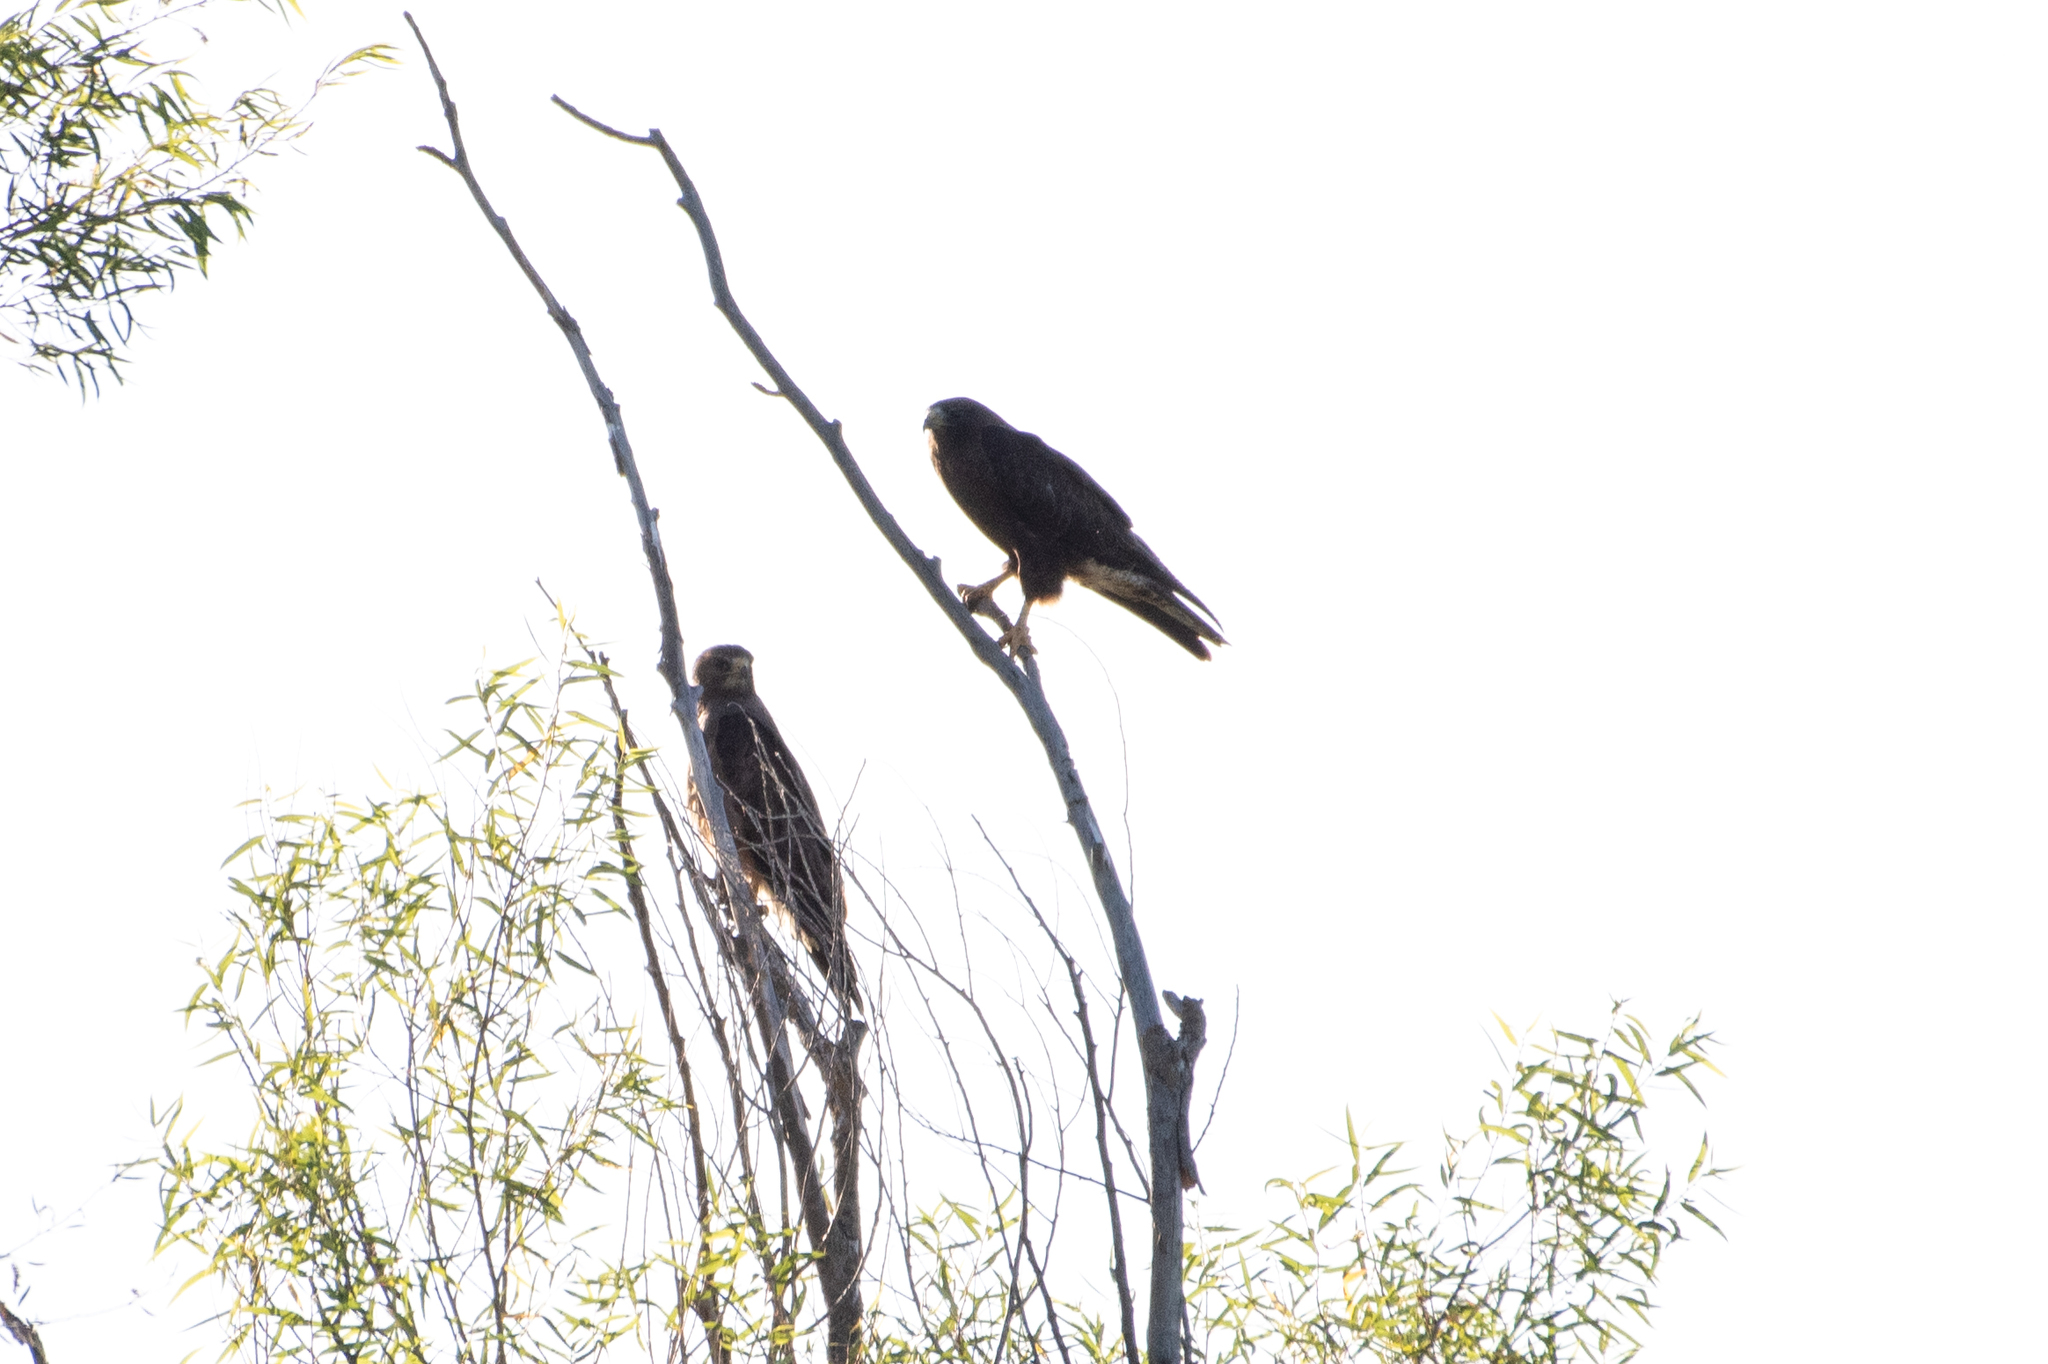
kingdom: Animalia
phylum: Chordata
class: Aves
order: Accipitriformes
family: Accipitridae
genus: Buteo
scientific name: Buteo swainsoni
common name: Swainson's hawk
